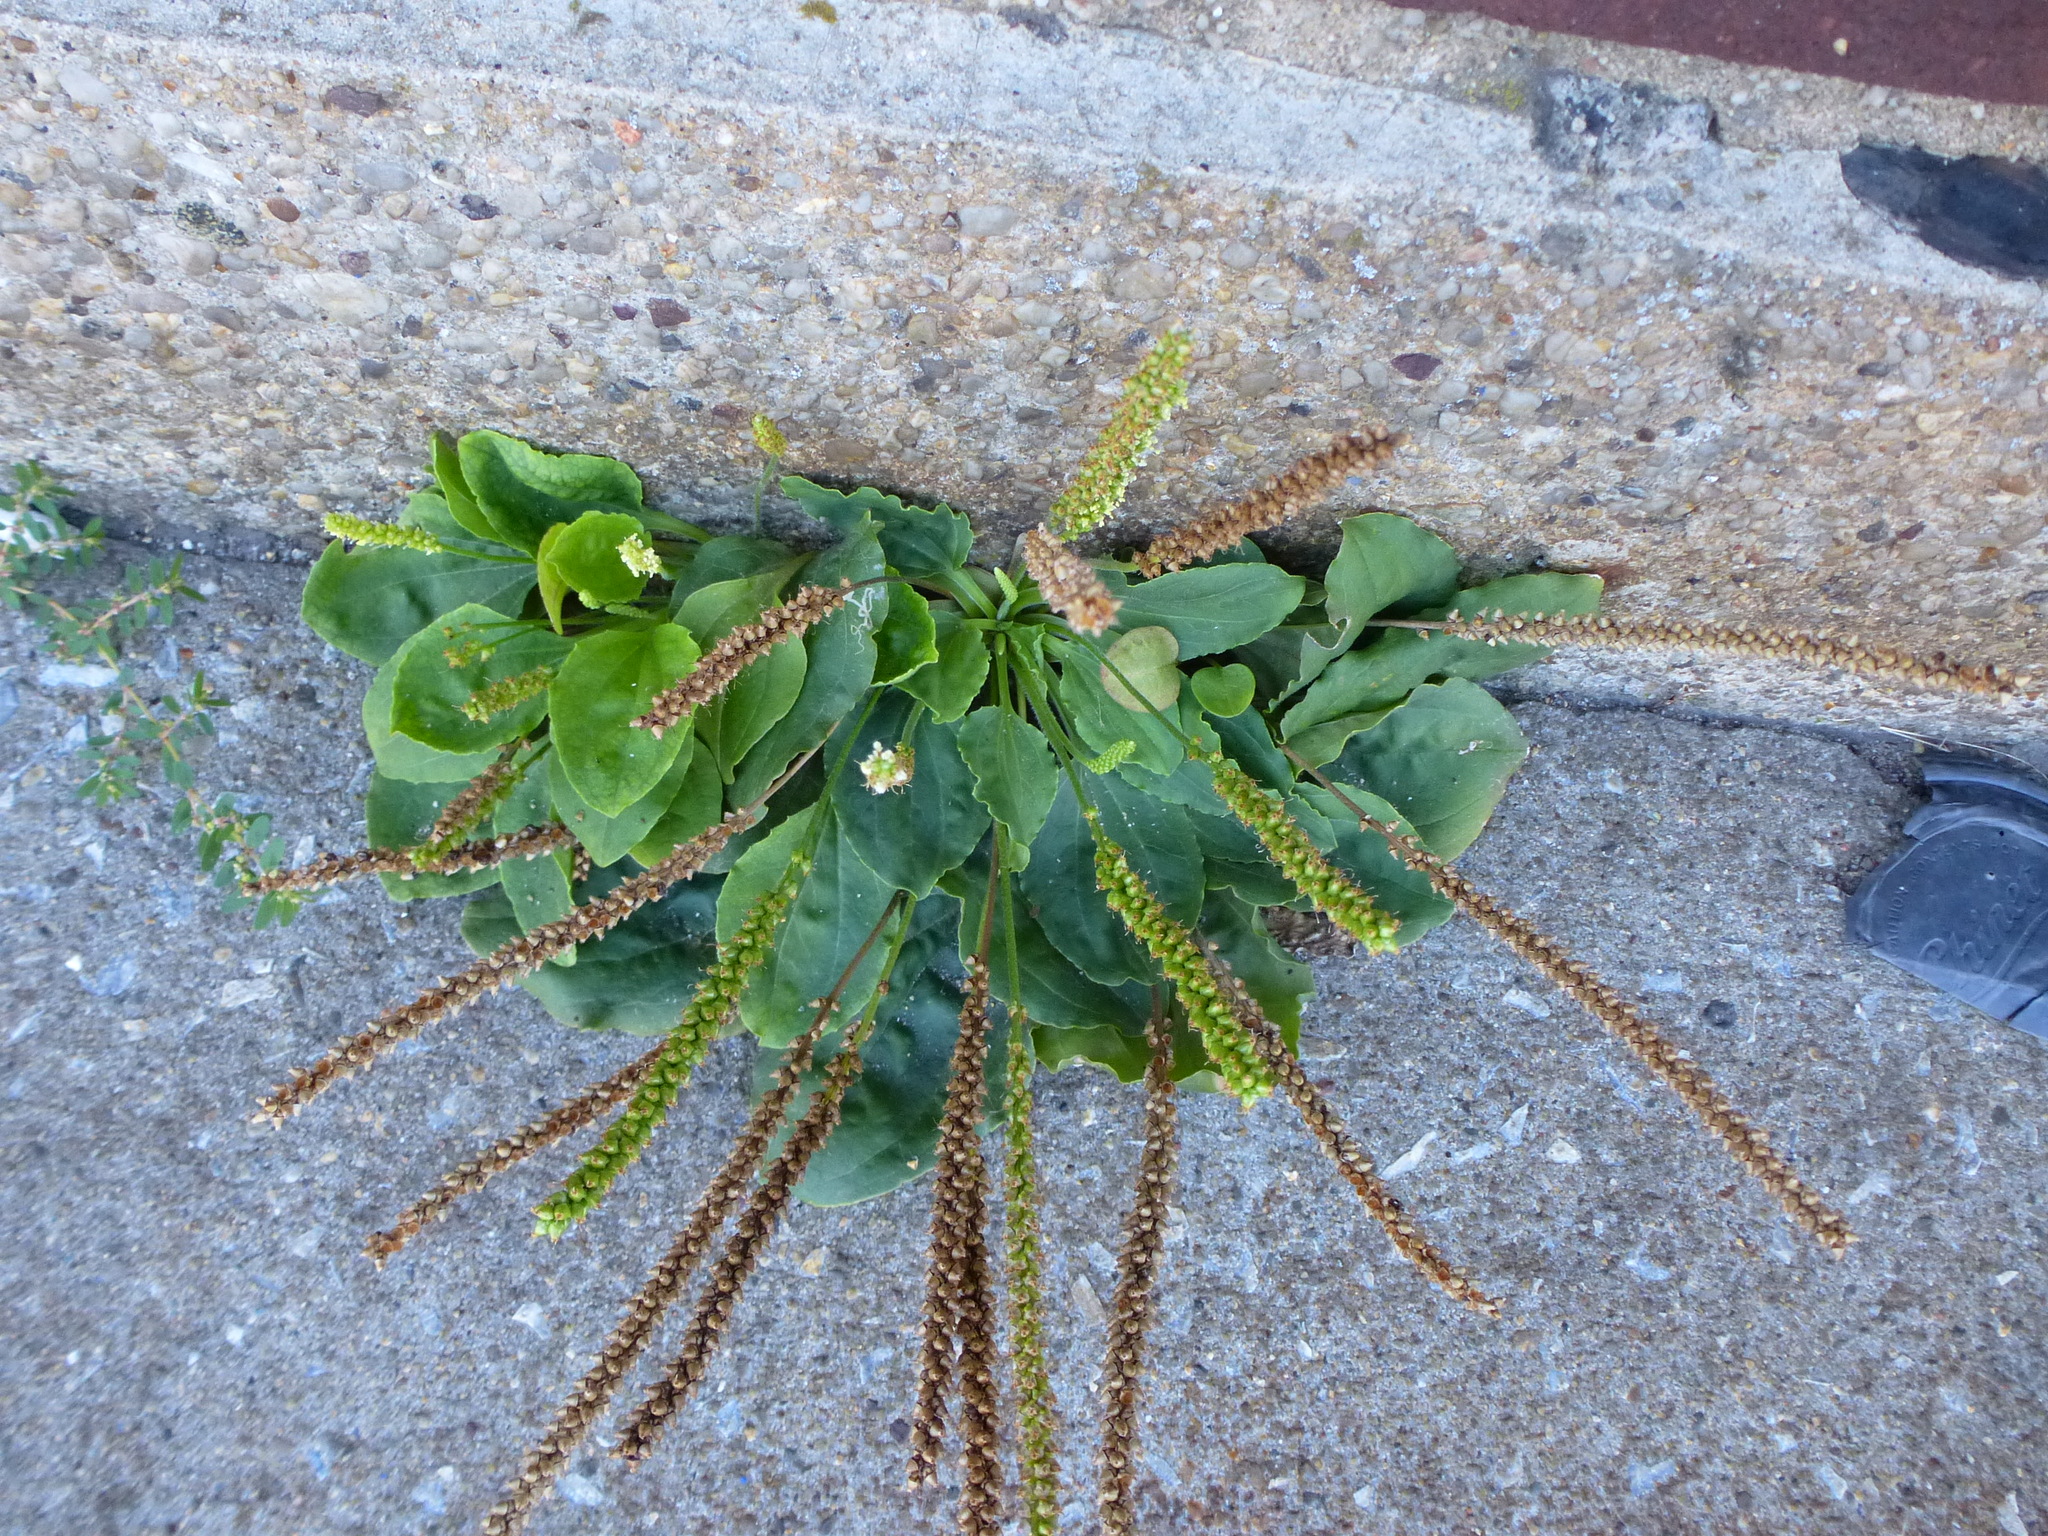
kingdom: Plantae
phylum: Tracheophyta
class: Magnoliopsida
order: Lamiales
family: Plantaginaceae
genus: Plantago
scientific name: Plantago major
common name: Common plantain
